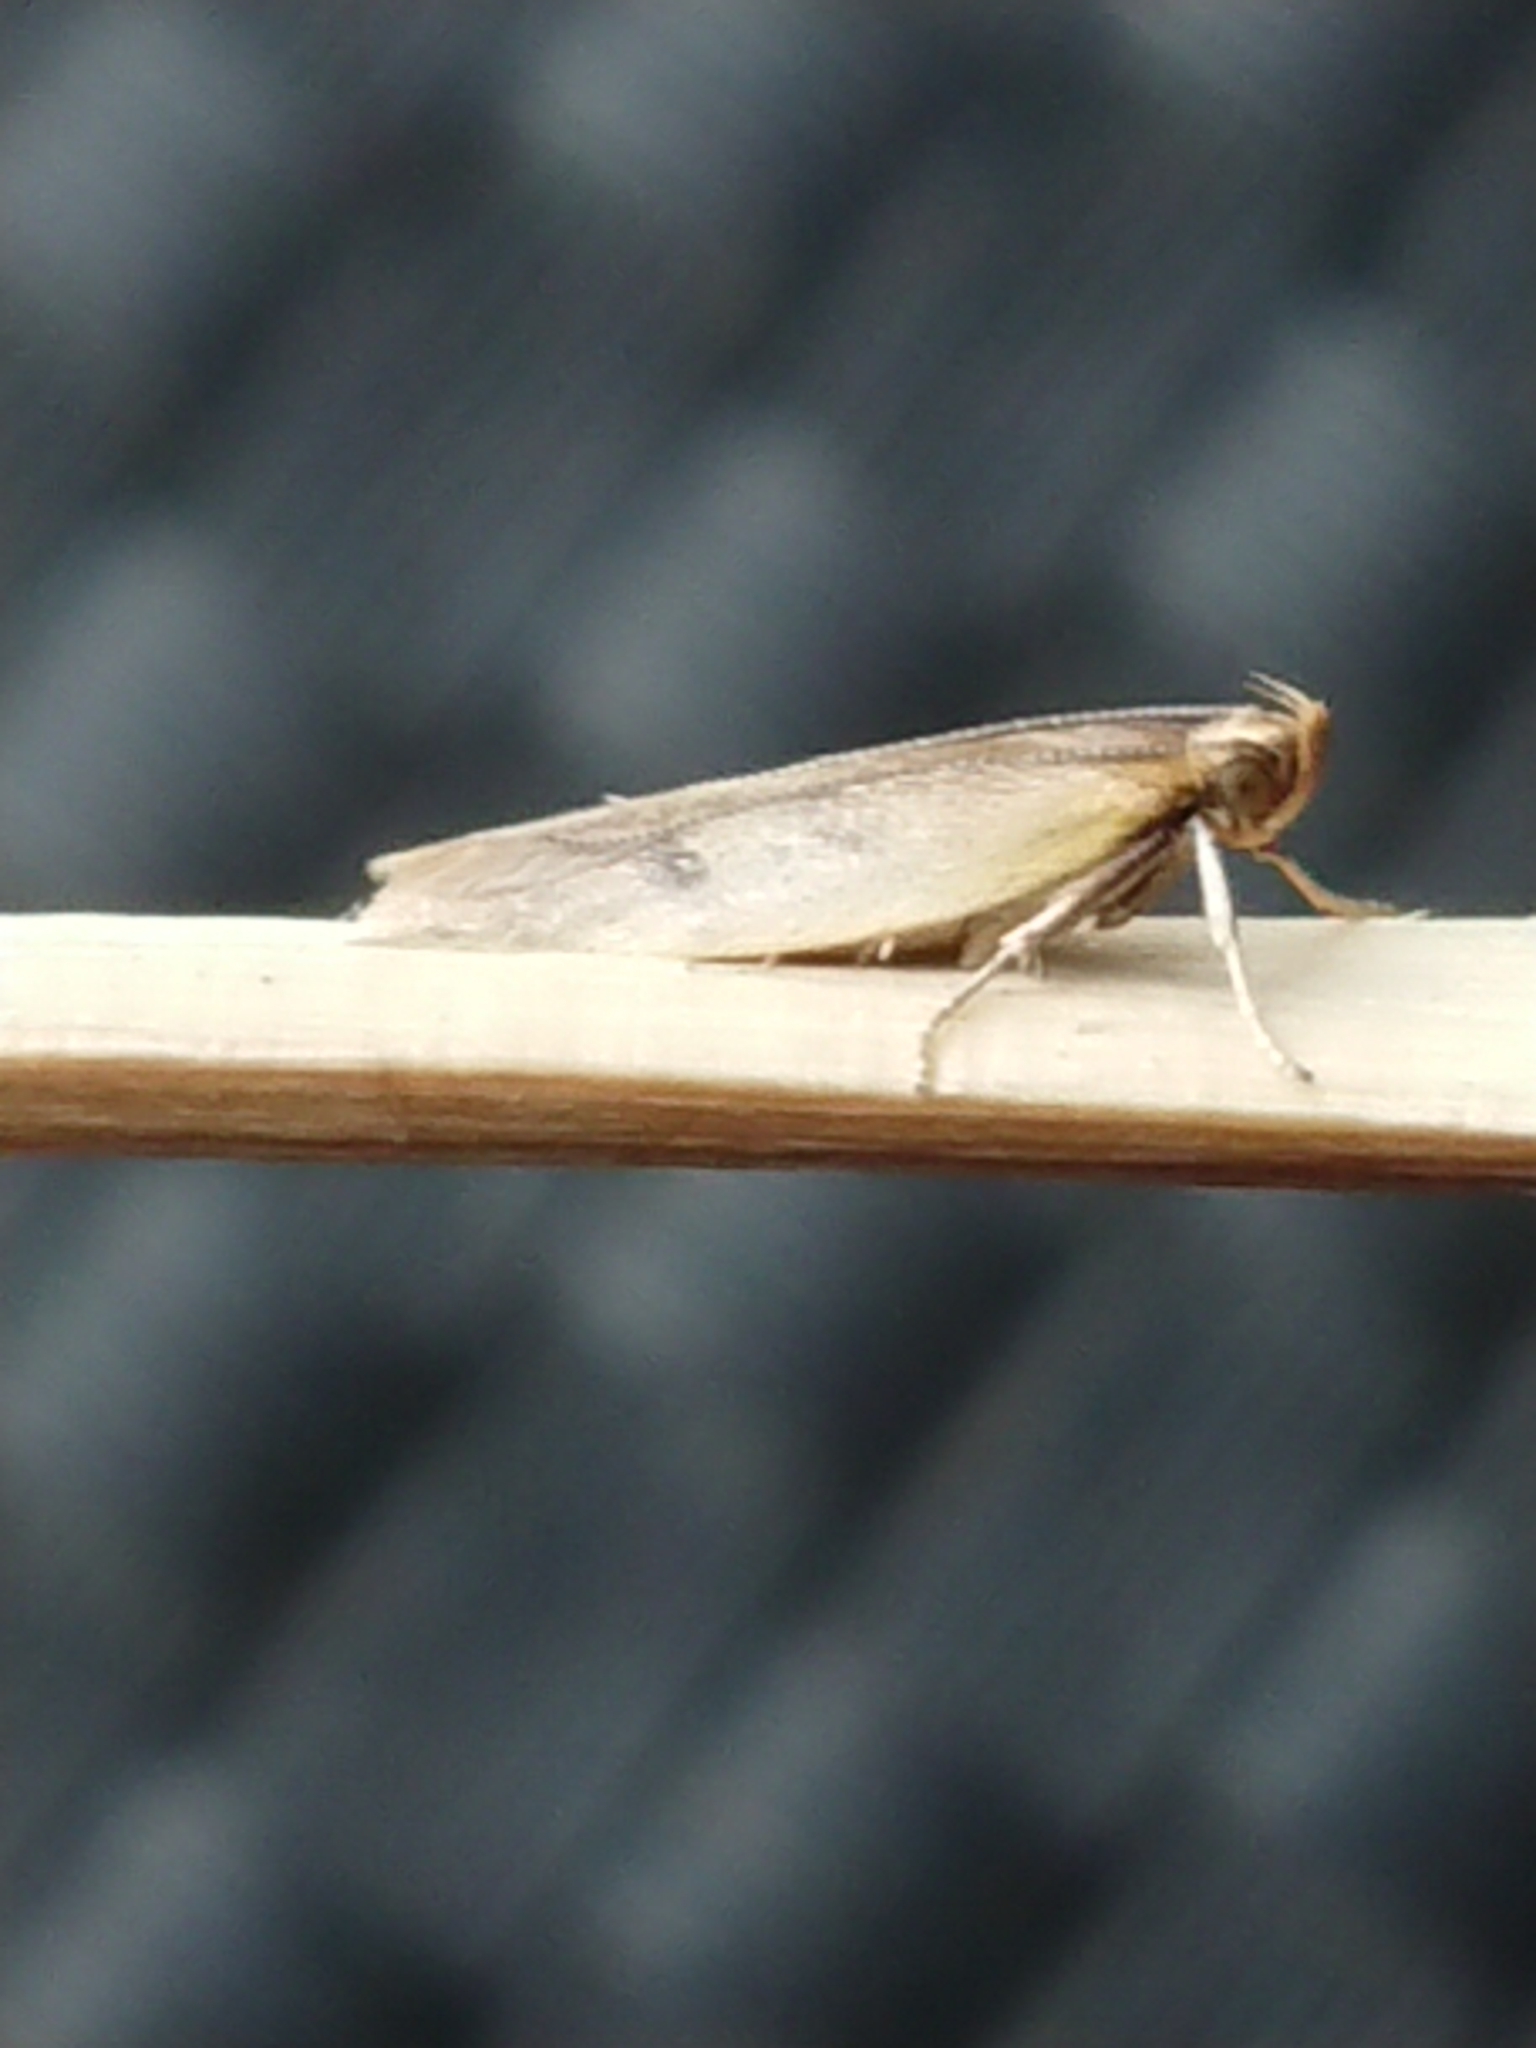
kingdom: Animalia
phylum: Arthropoda
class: Insecta
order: Lepidoptera
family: Oecophoridae
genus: Gymnobathra
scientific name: Gymnobathra sarcoxantha
